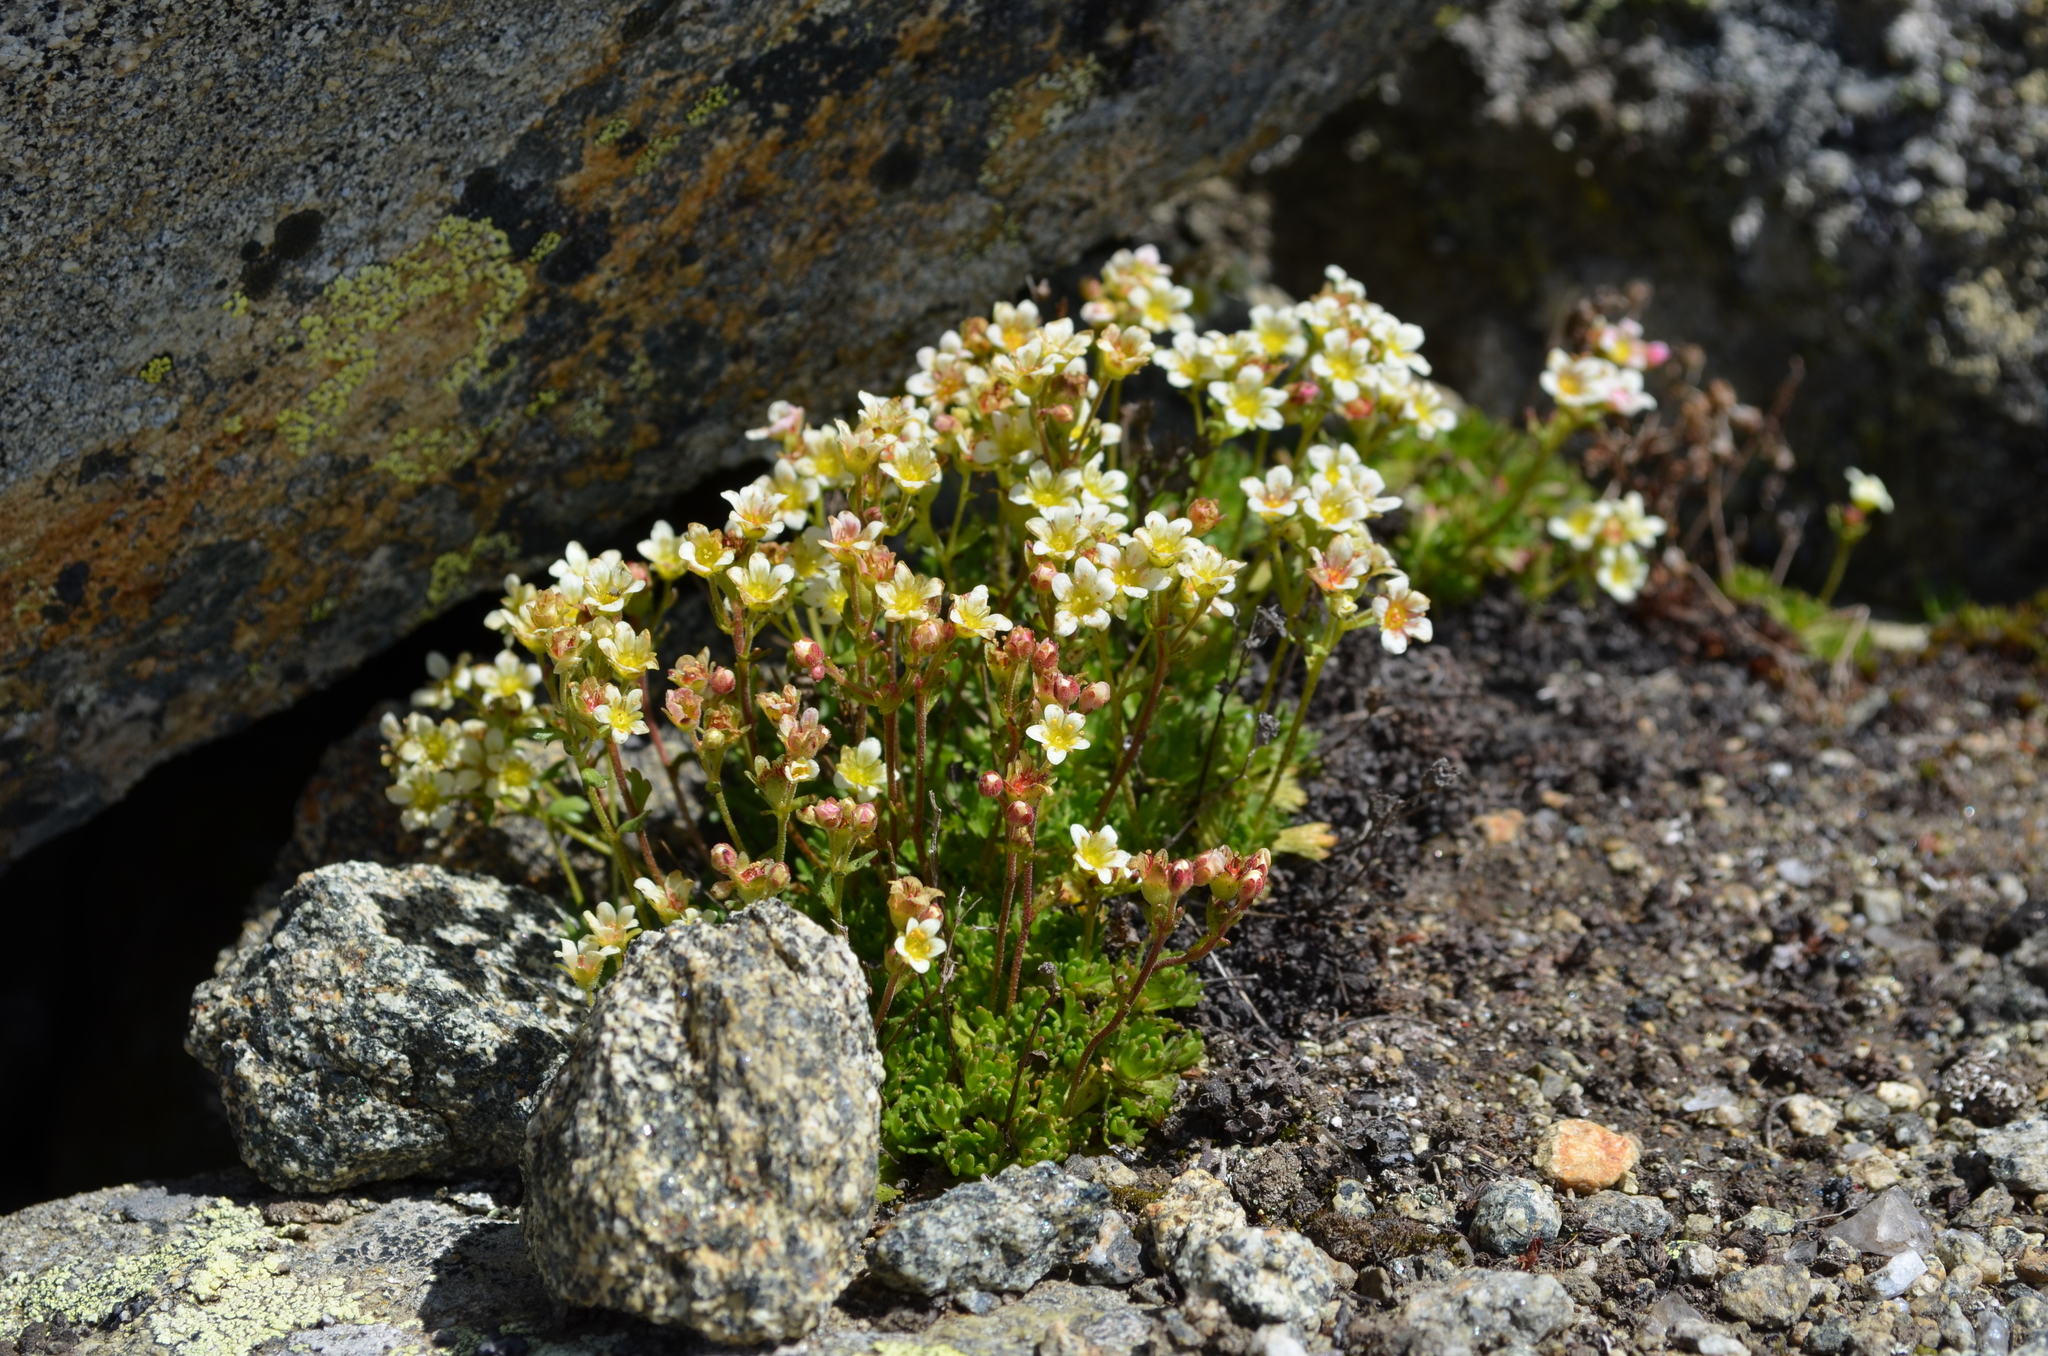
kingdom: Plantae
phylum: Tracheophyta
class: Magnoliopsida
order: Saxifragales
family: Saxifragaceae
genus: Saxifraga
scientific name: Saxifraga exarata
